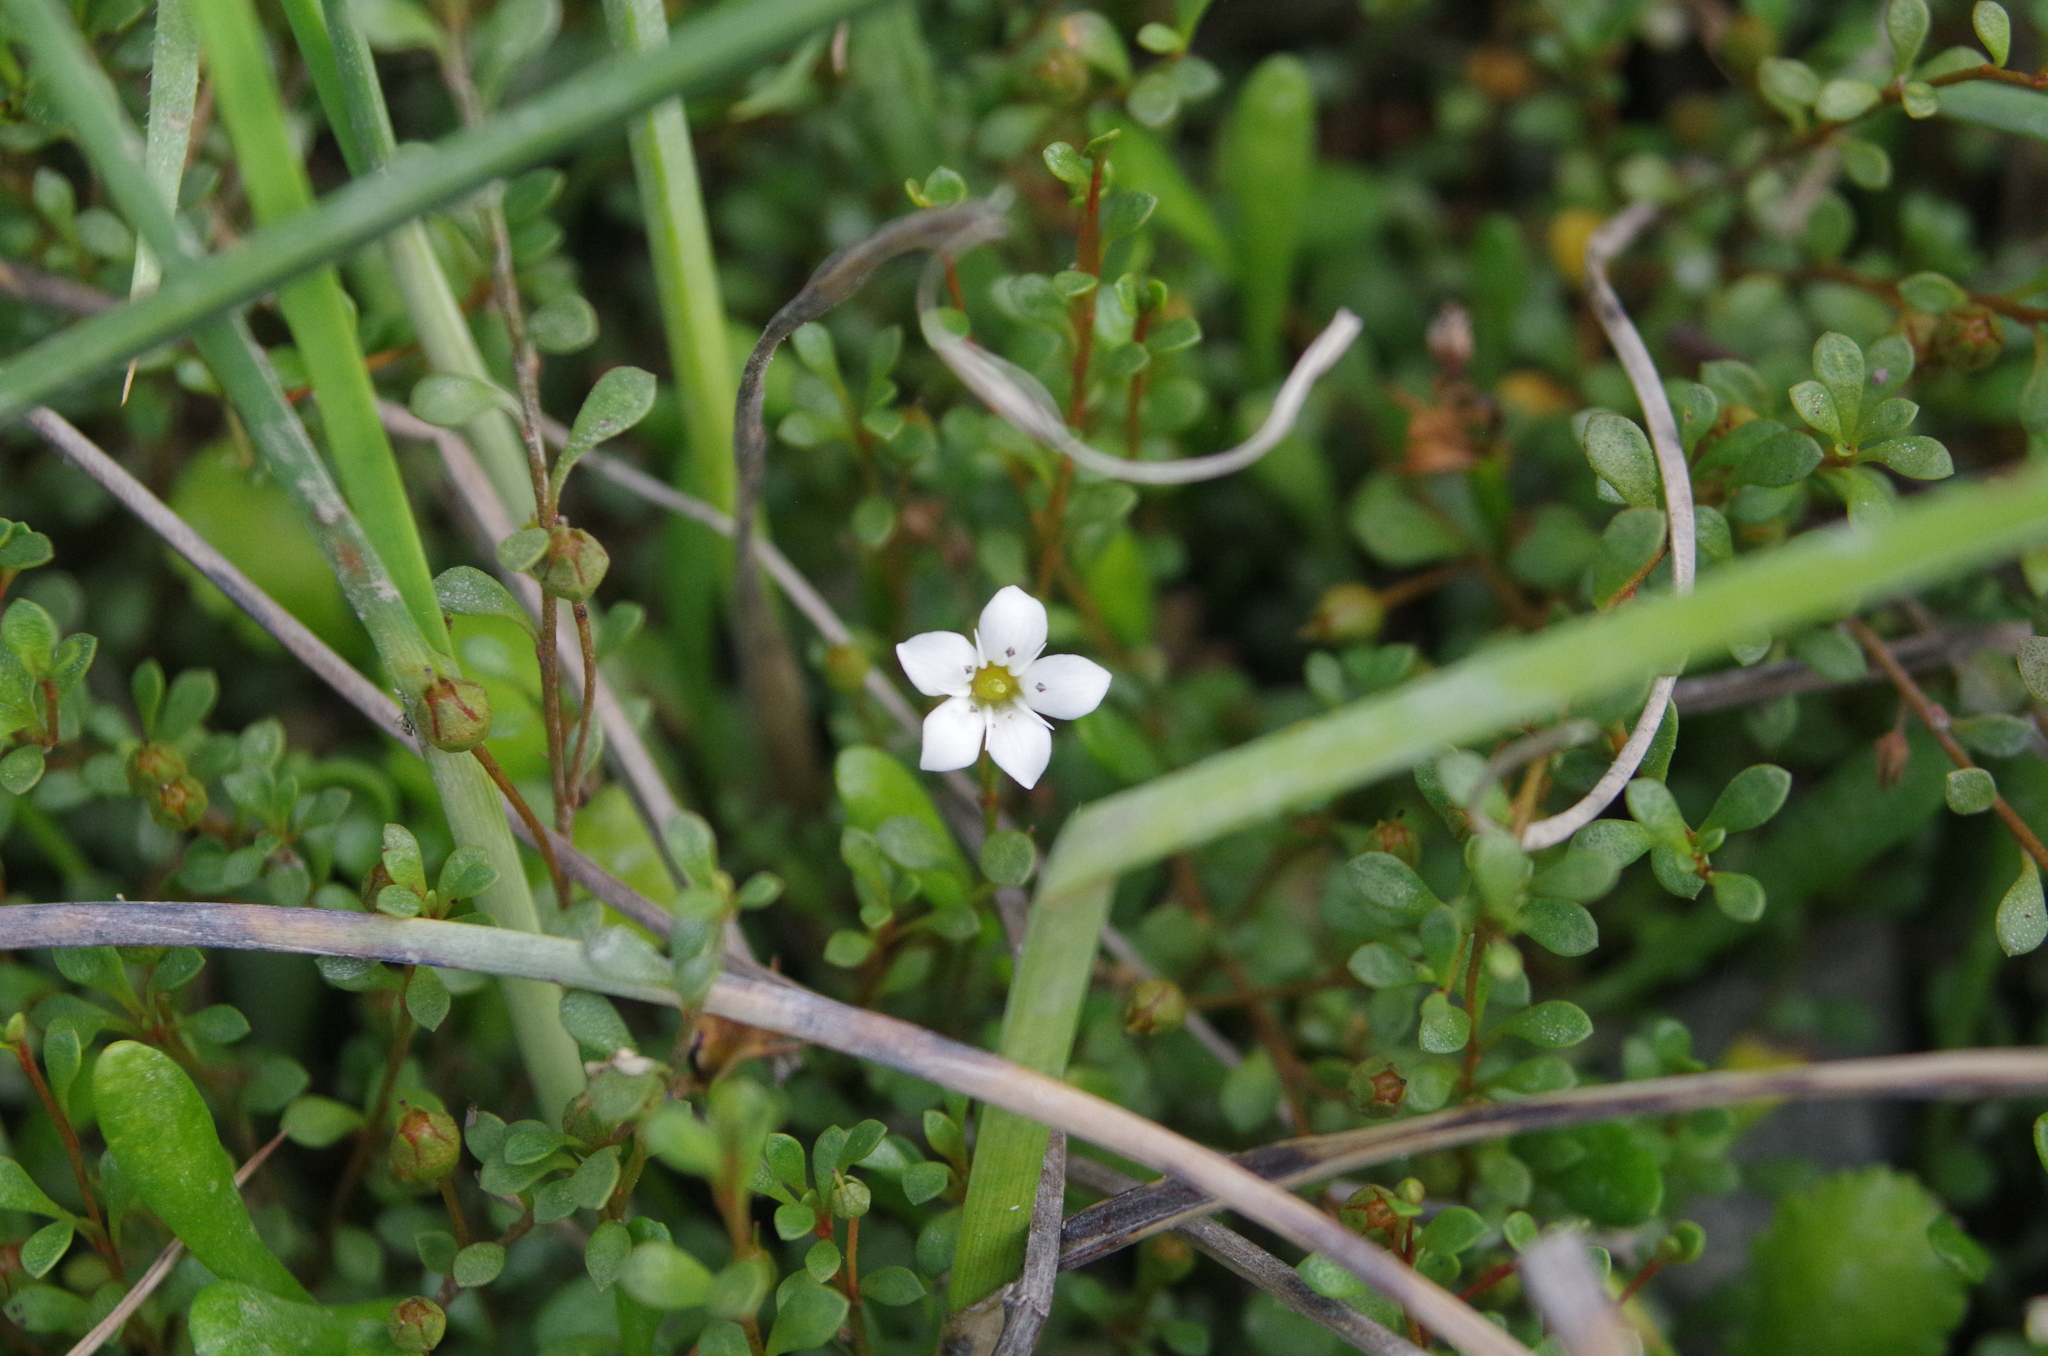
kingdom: Plantae
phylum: Tracheophyta
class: Magnoliopsida
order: Ericales
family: Primulaceae
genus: Samolus
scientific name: Samolus repens
